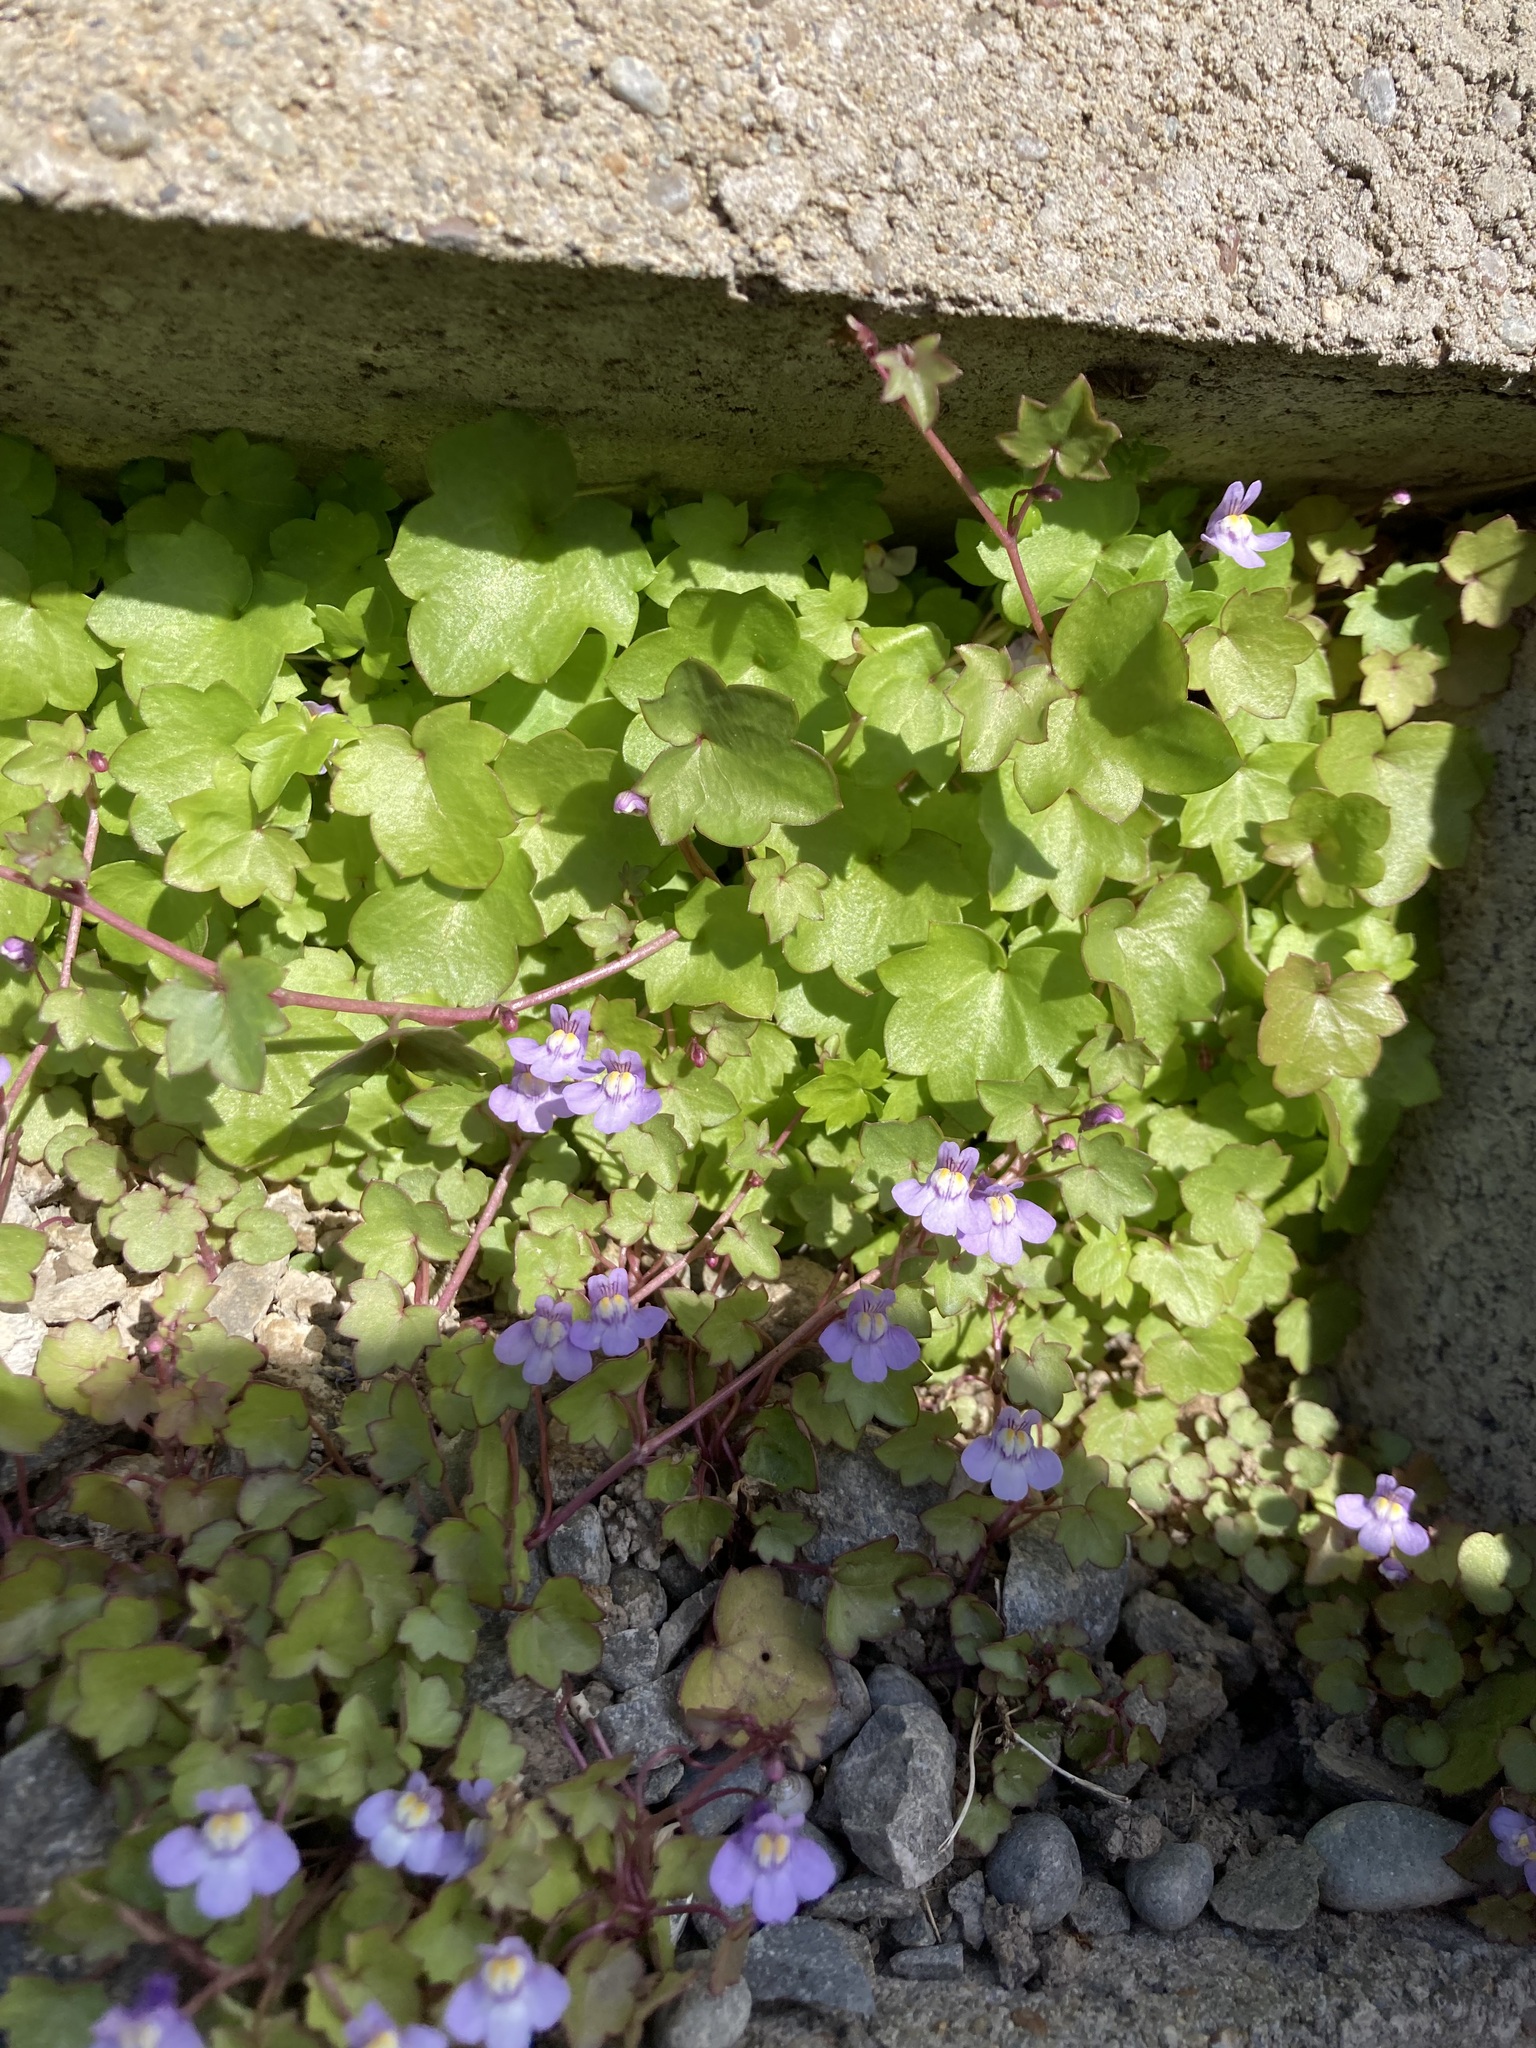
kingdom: Plantae
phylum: Tracheophyta
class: Magnoliopsida
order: Lamiales
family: Plantaginaceae
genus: Cymbalaria
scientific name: Cymbalaria muralis
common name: Ivy-leaved toadflax
